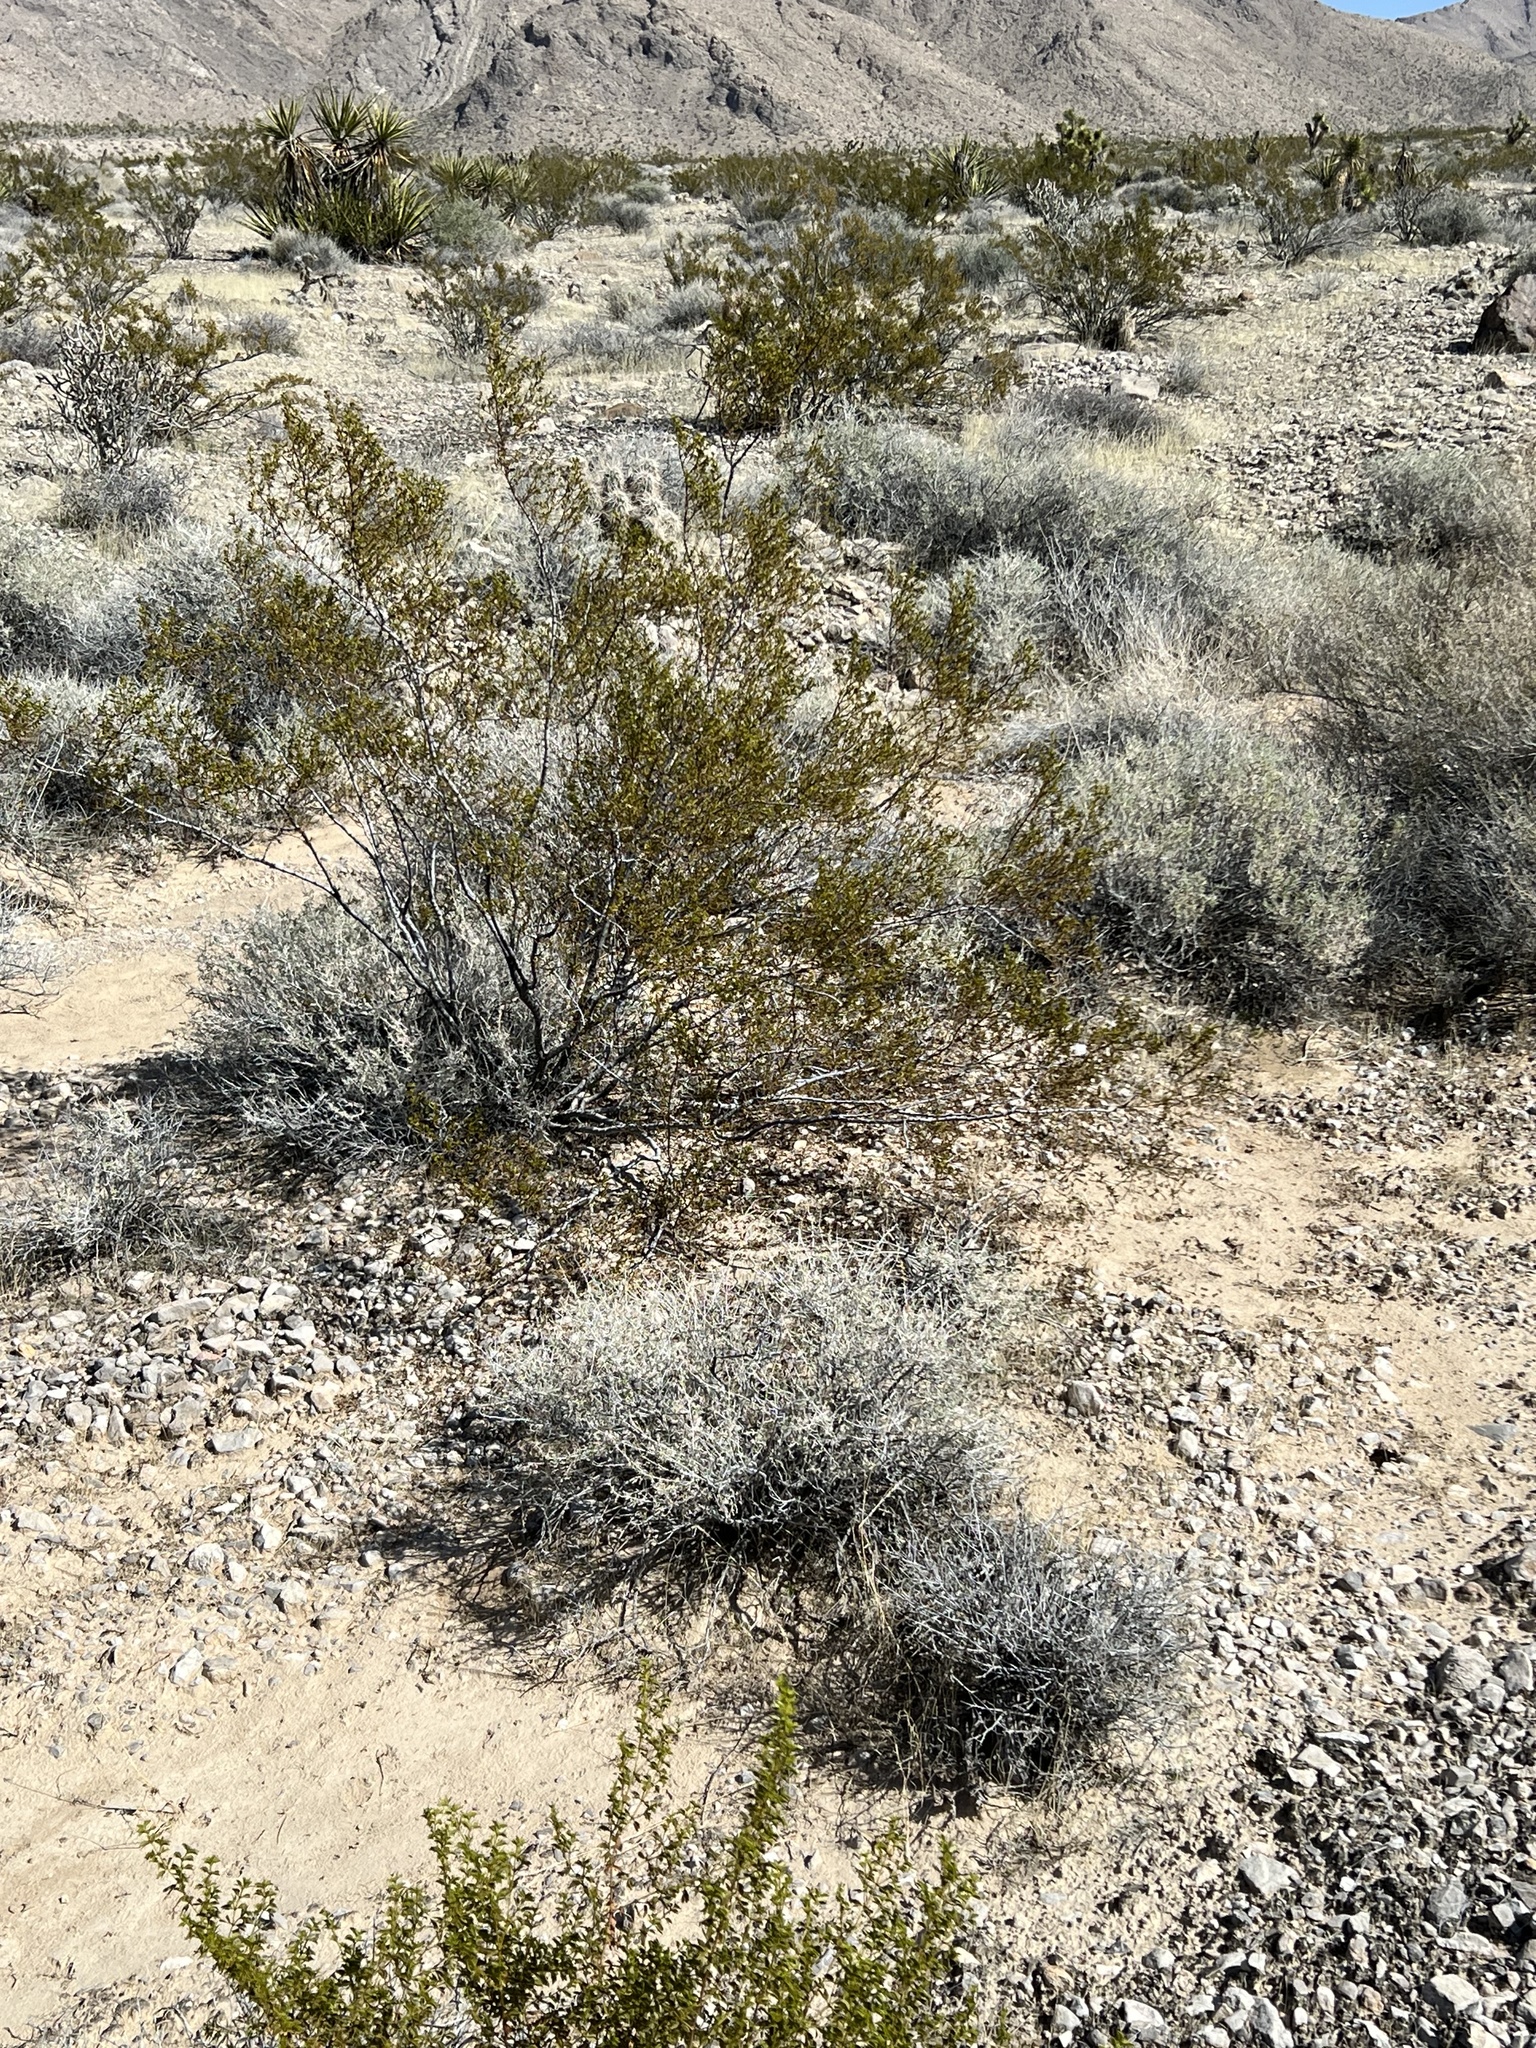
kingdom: Plantae
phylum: Tracheophyta
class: Magnoliopsida
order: Zygophyllales
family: Zygophyllaceae
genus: Larrea
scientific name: Larrea tridentata
